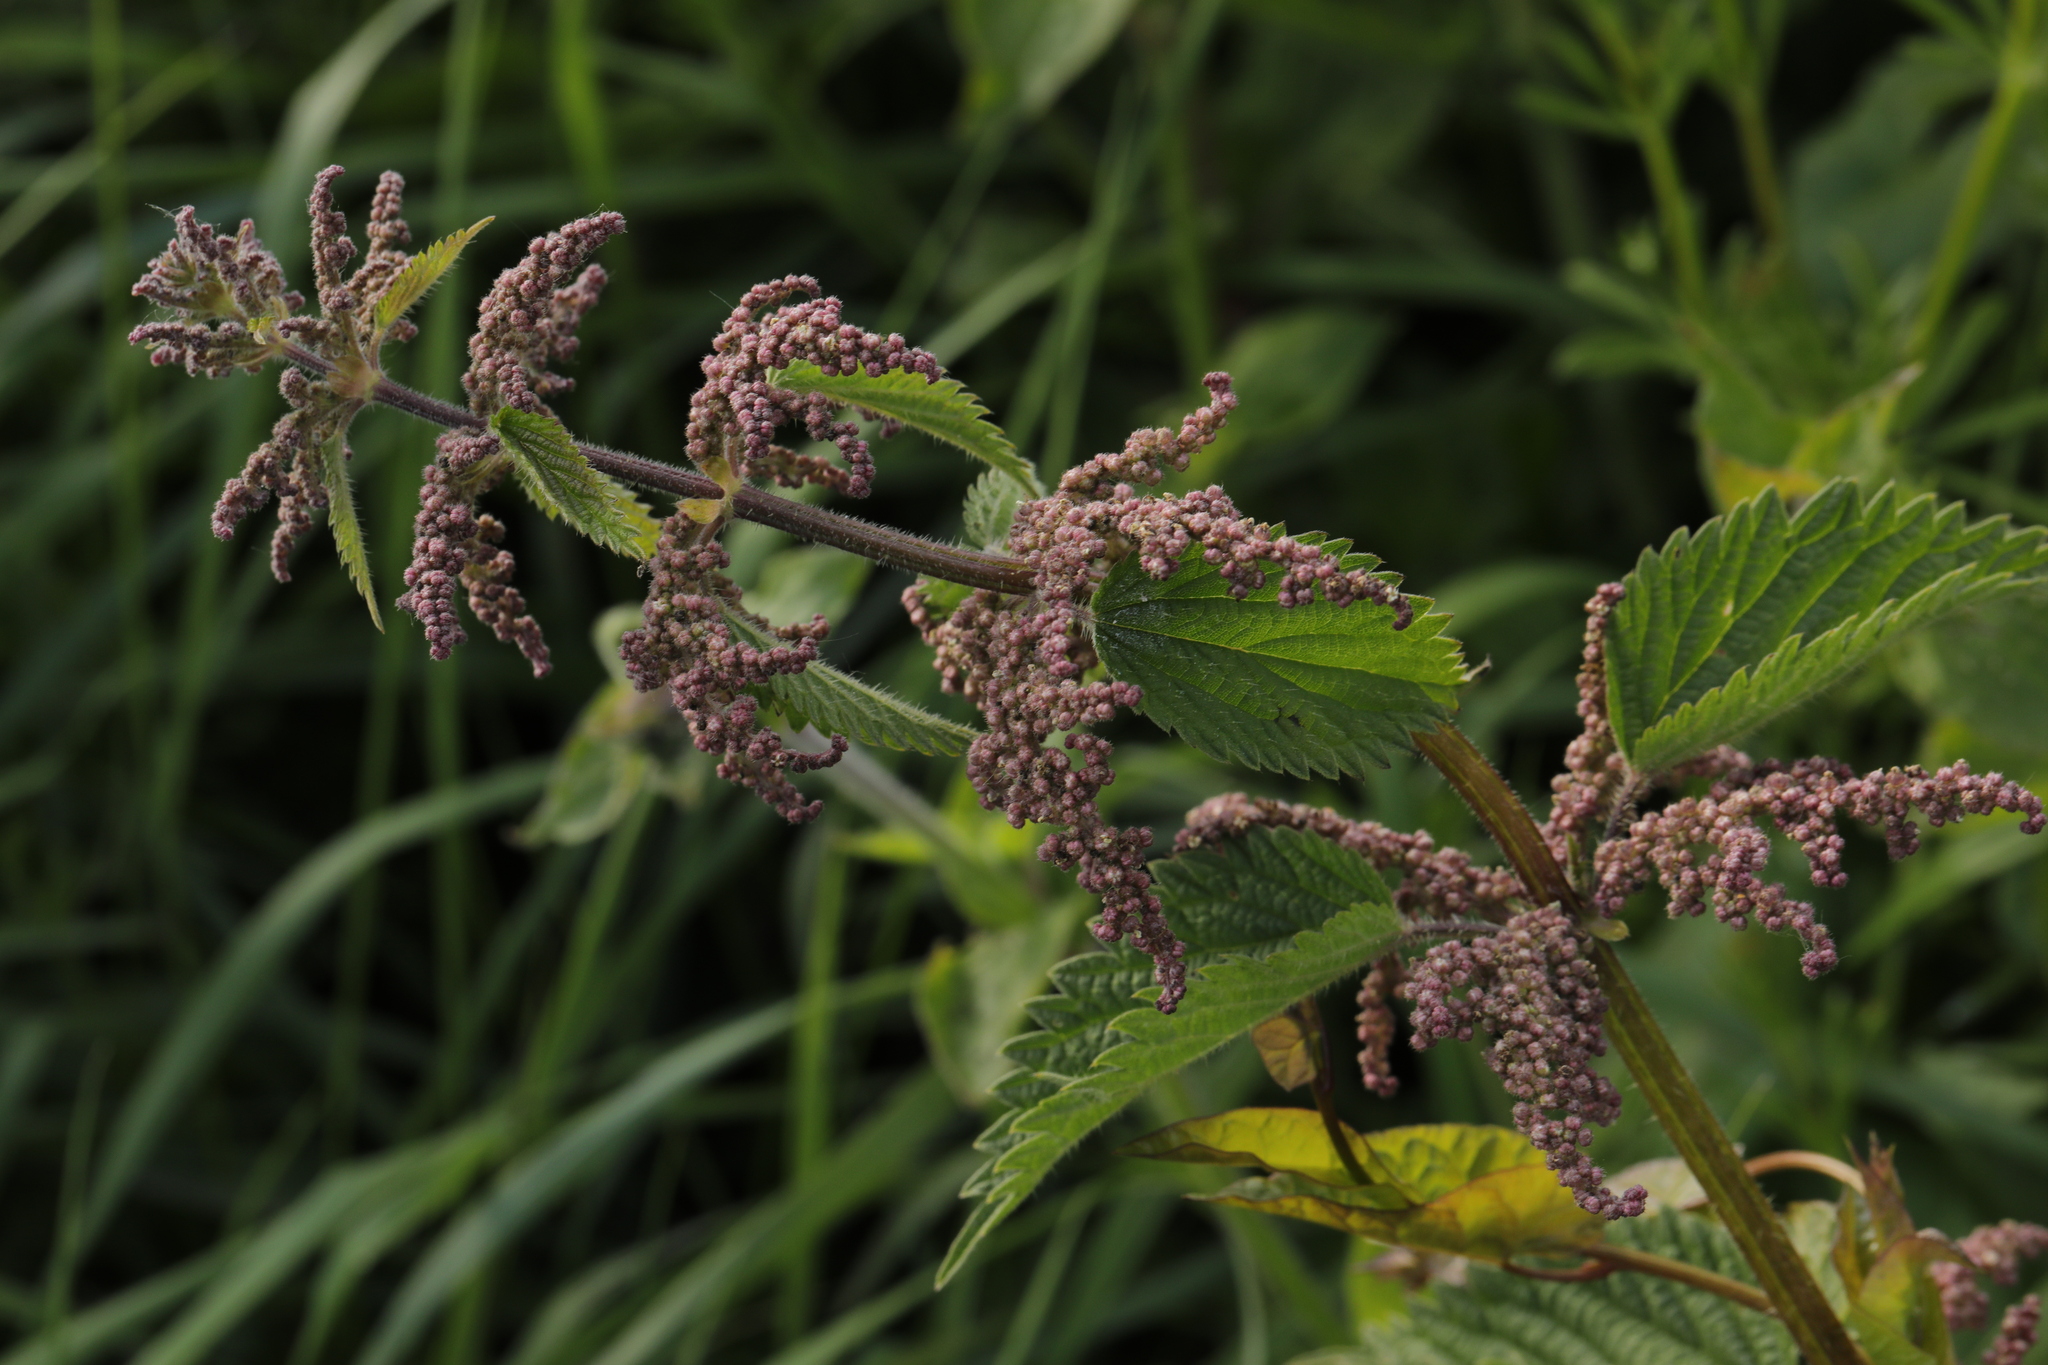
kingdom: Plantae
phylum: Tracheophyta
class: Magnoliopsida
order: Rosales
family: Urticaceae
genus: Urtica
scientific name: Urtica dioica
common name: Common nettle
